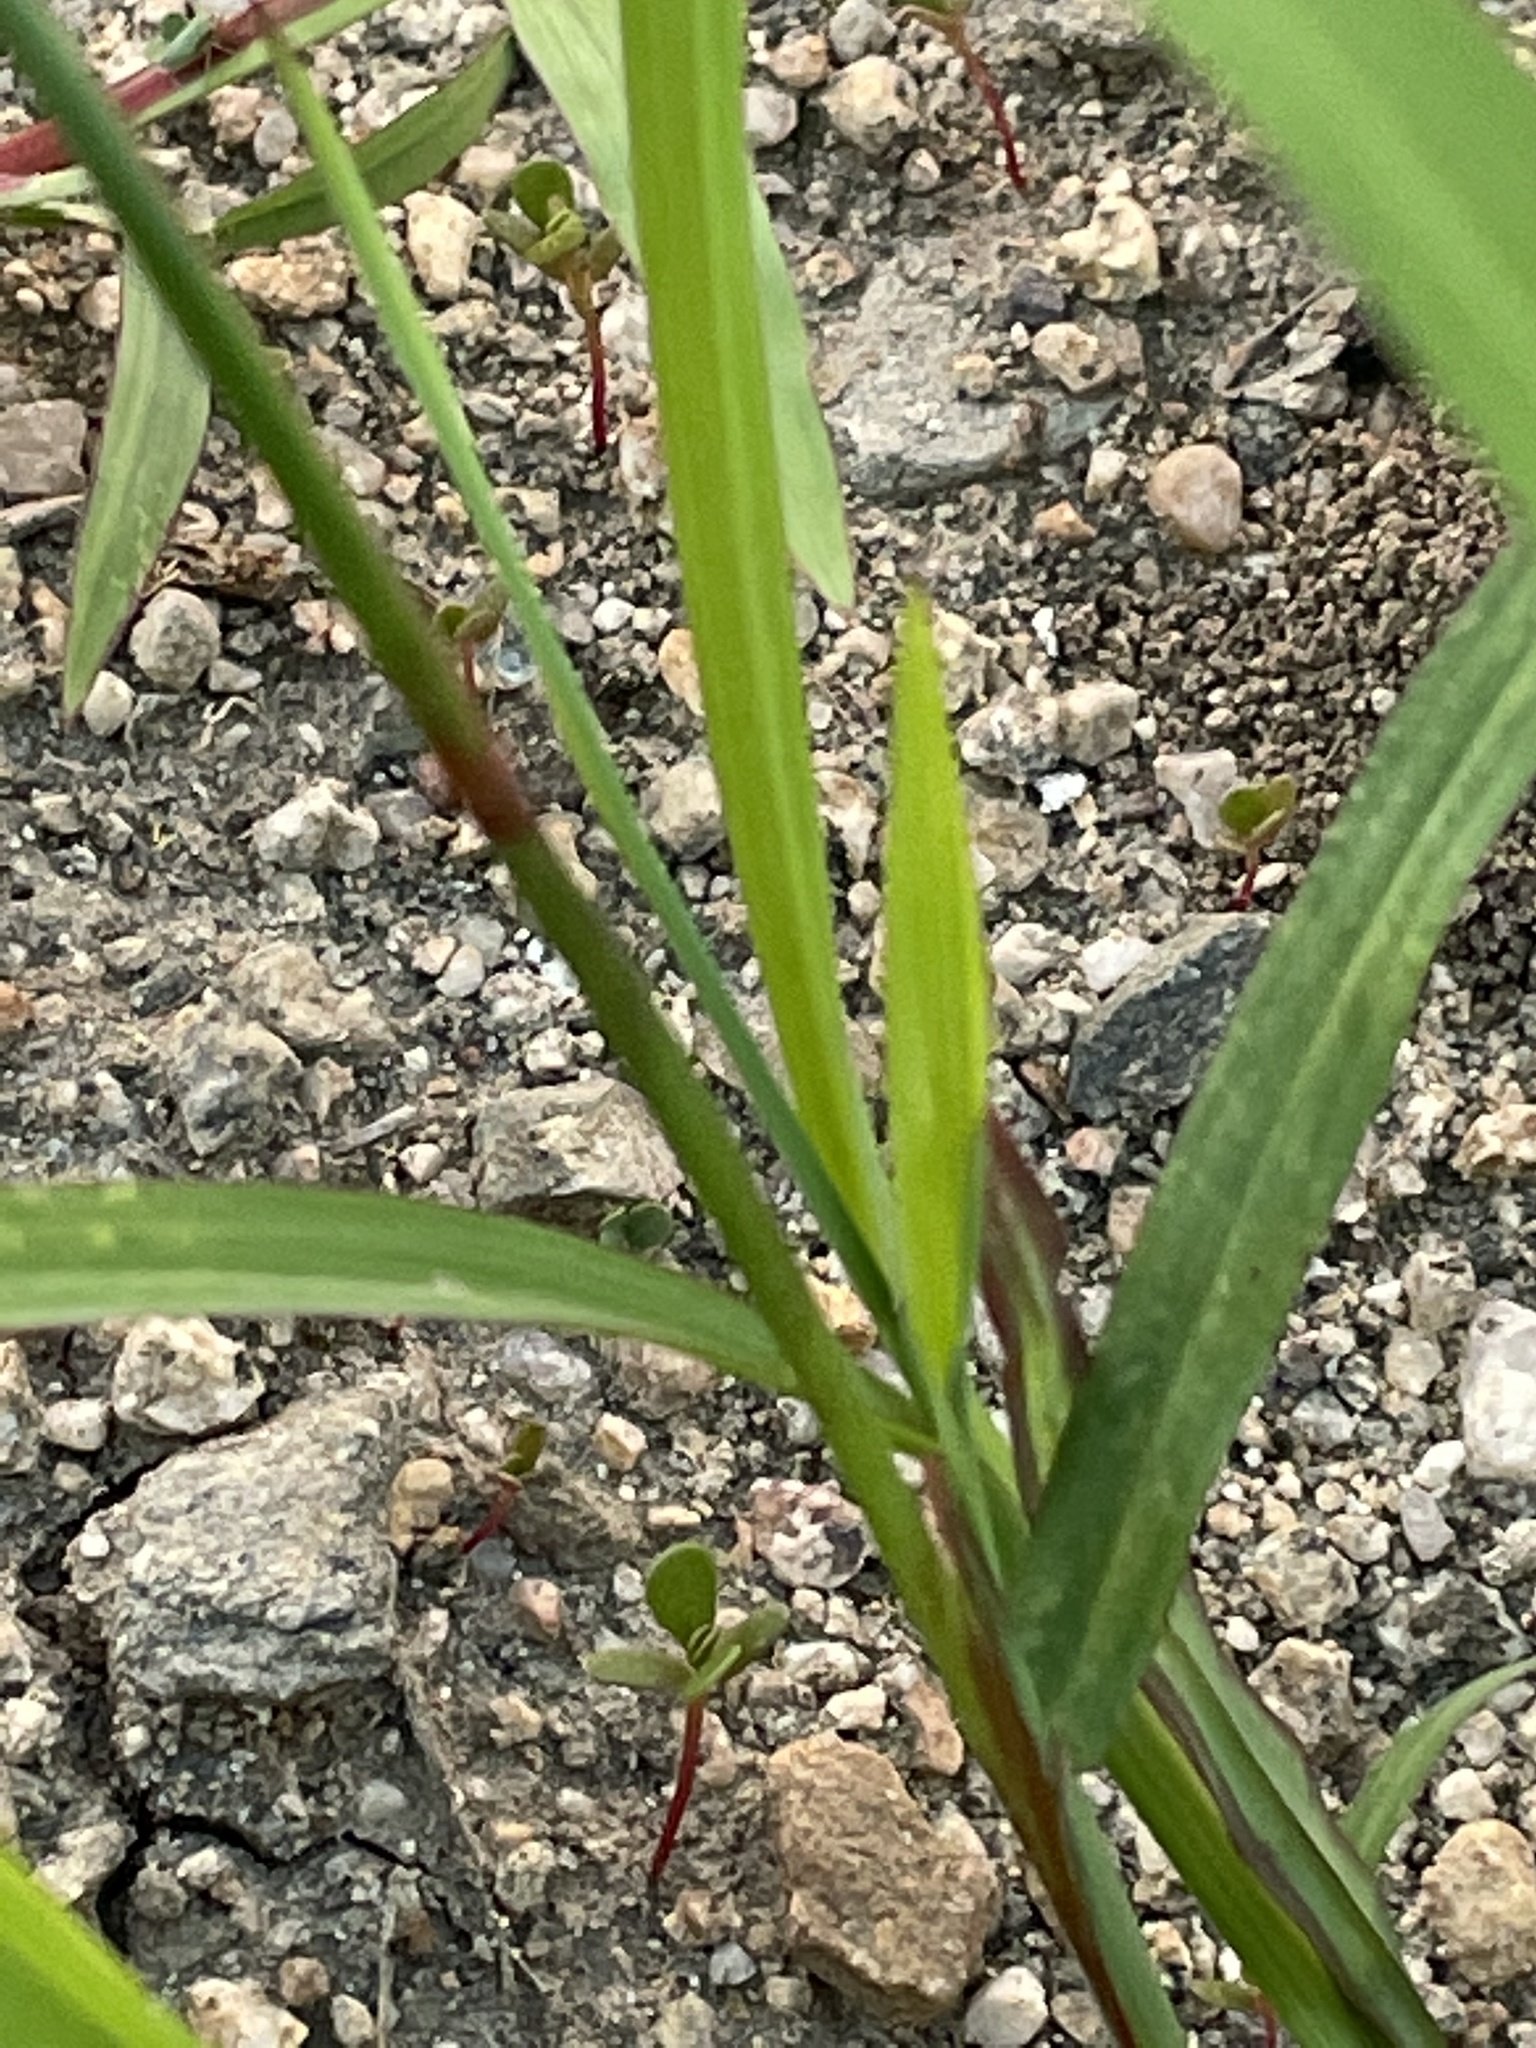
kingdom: Plantae
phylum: Tracheophyta
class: Liliopsida
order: Poales
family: Poaceae
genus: Echinochloa
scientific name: Echinochloa colonum
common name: Jungle rice
